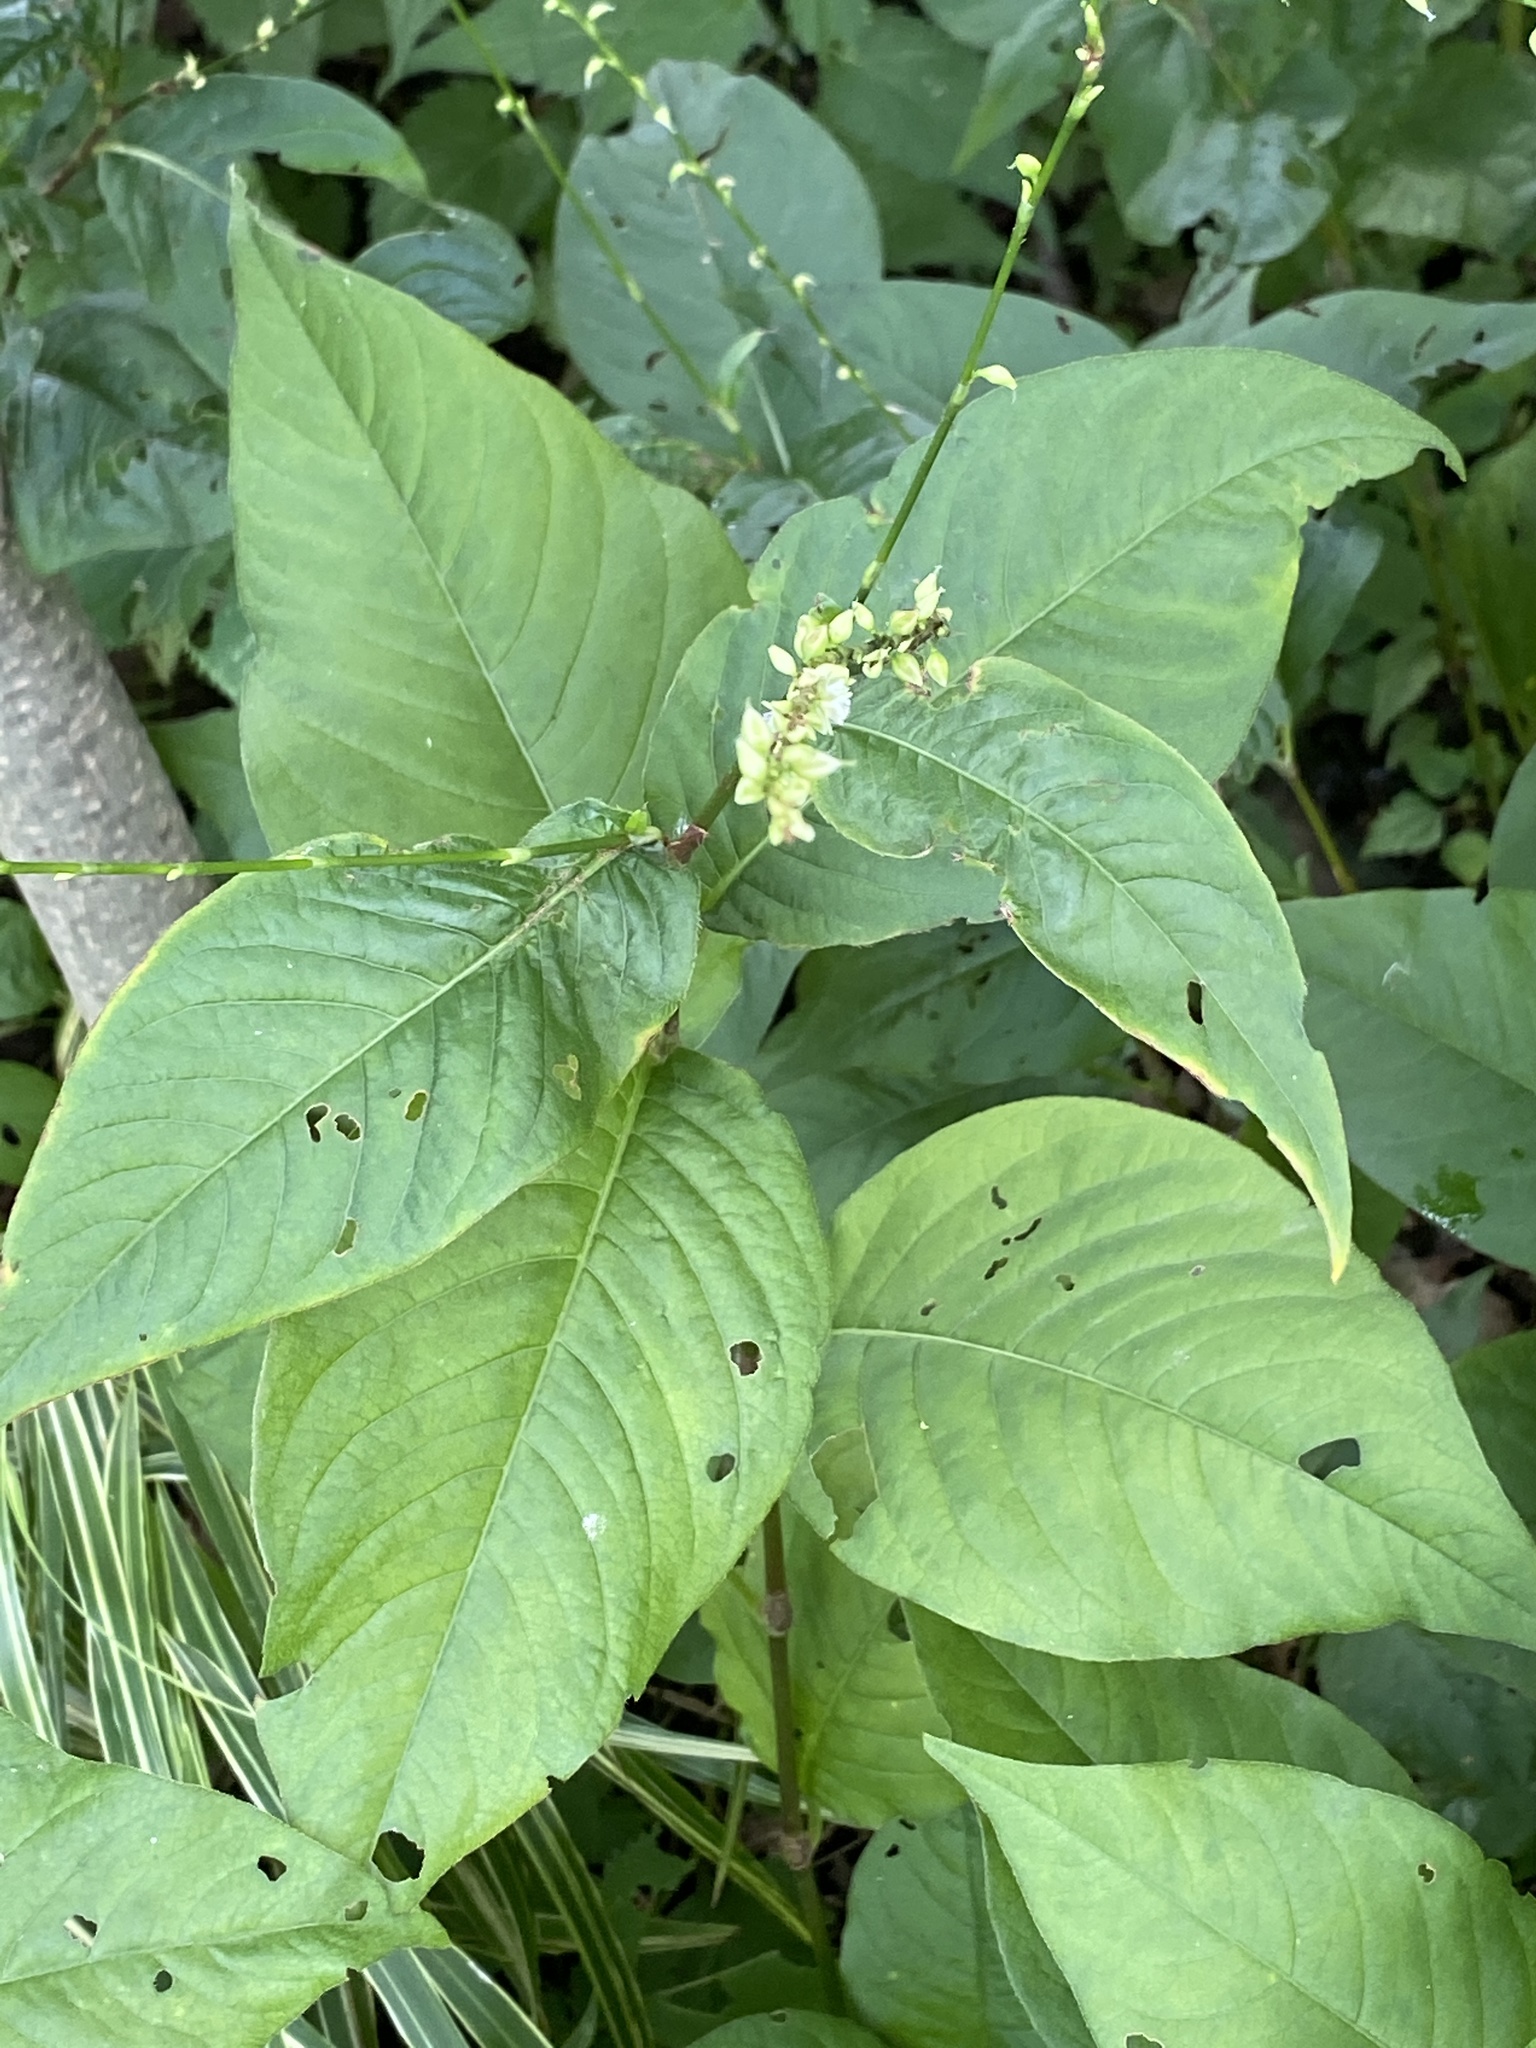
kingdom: Plantae
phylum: Tracheophyta
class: Magnoliopsida
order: Caryophyllales
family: Polygonaceae
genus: Persicaria
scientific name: Persicaria virginiana
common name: Jumpseed
